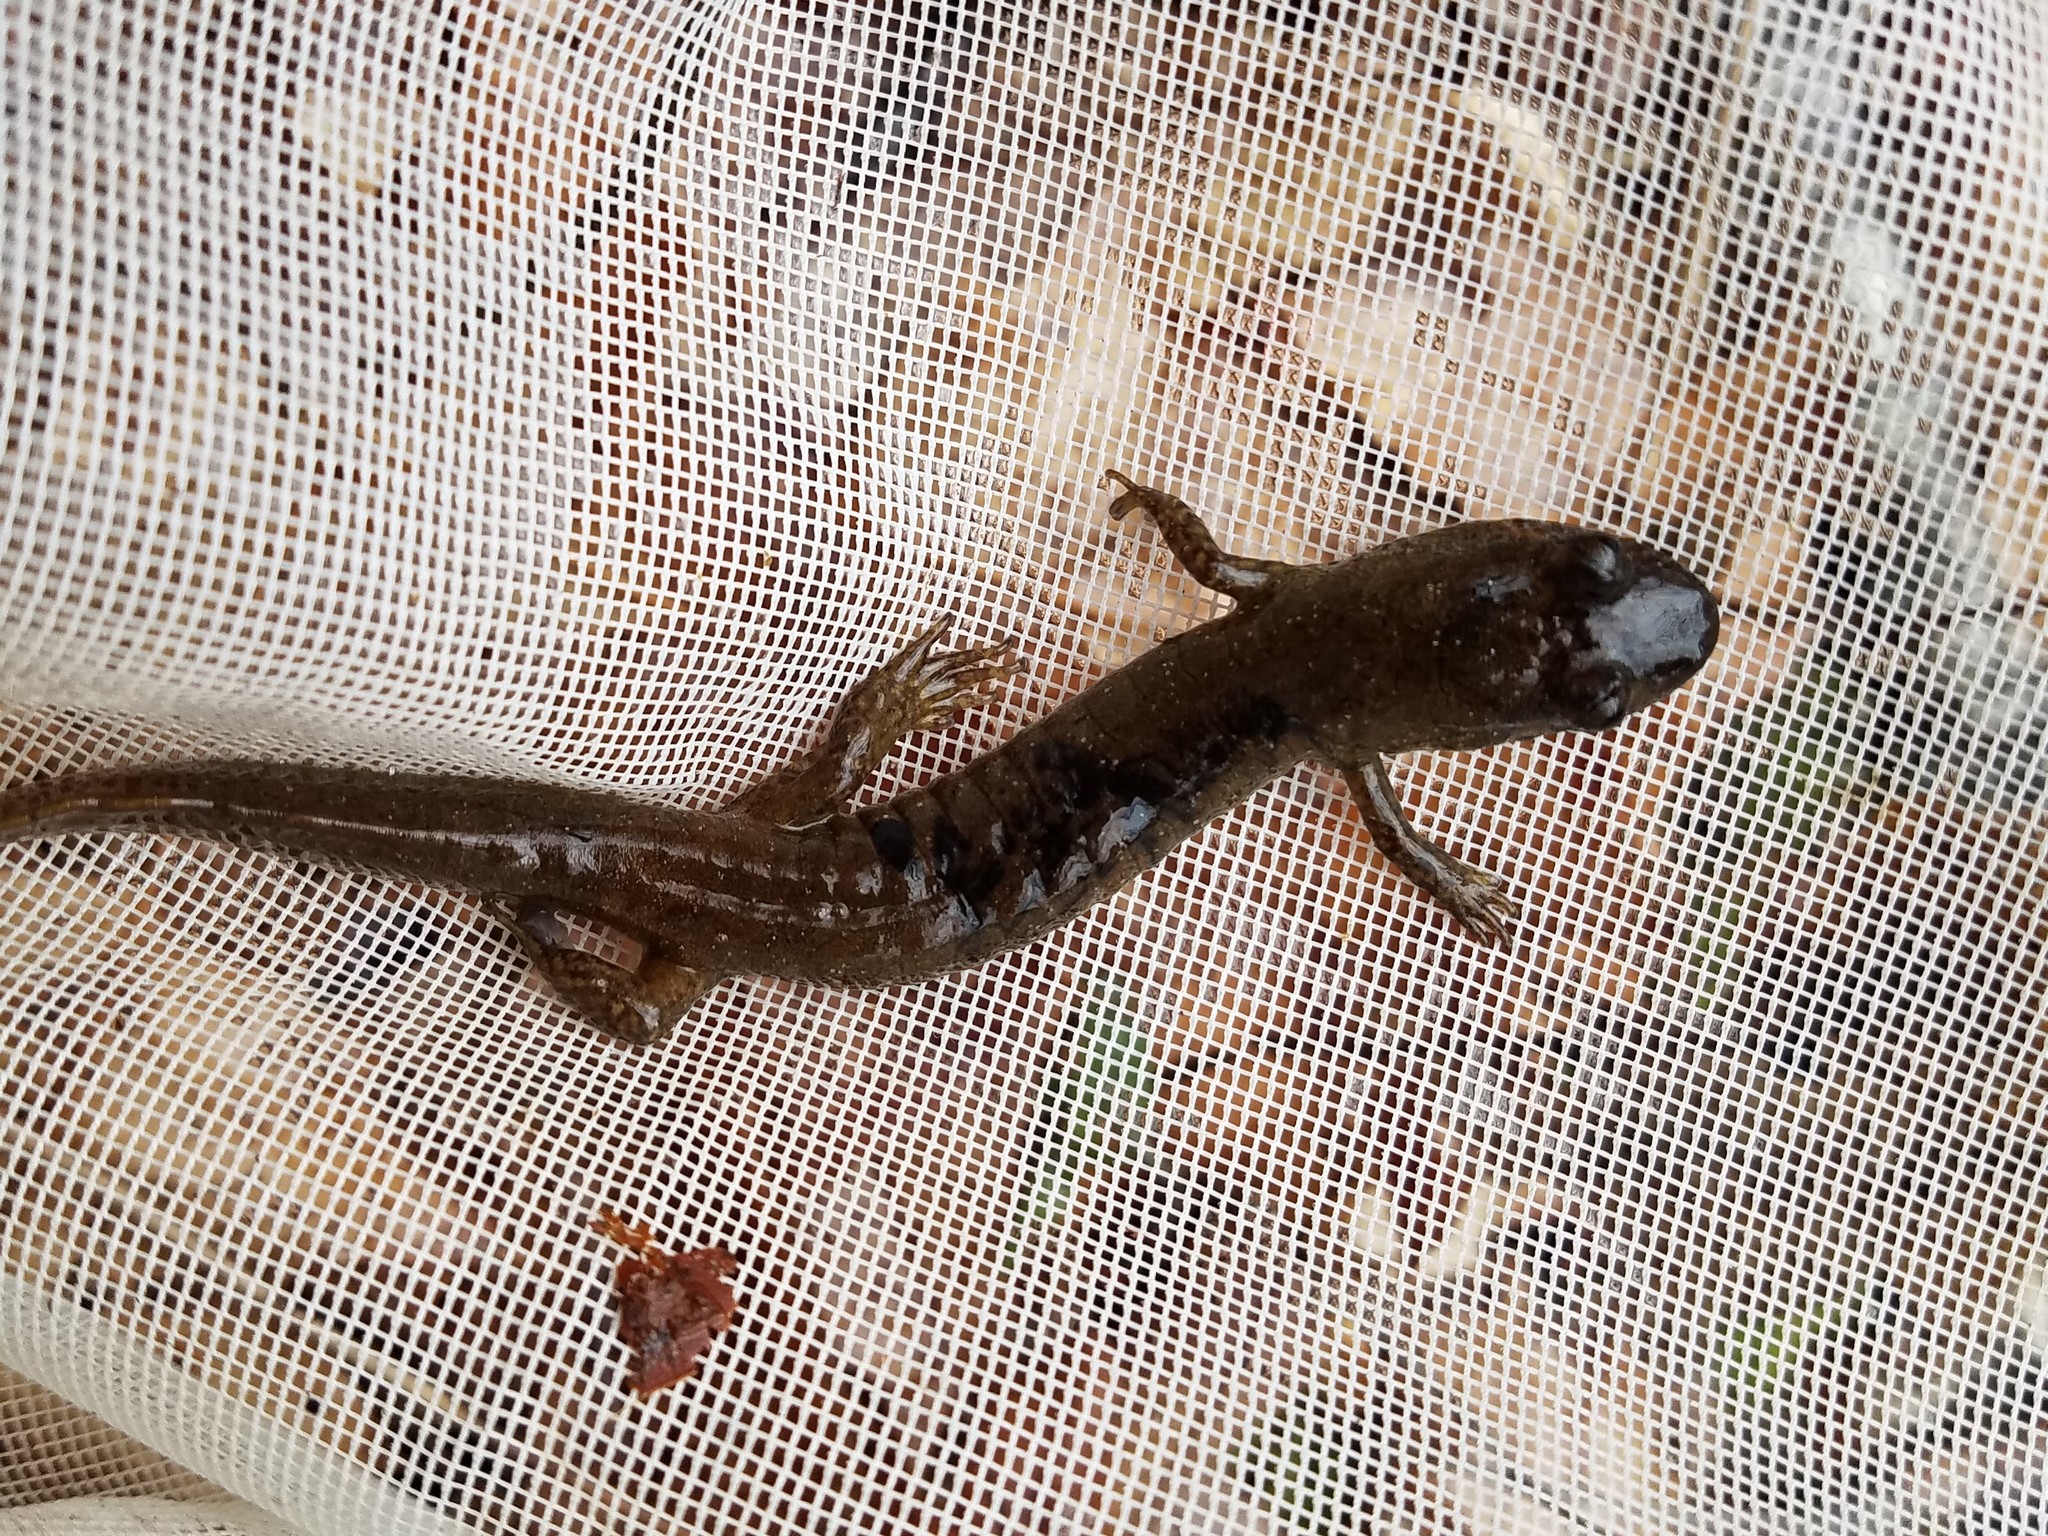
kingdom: Animalia
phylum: Chordata
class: Amphibia
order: Caudata
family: Plethodontidae
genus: Desmognathus
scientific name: Desmognathus
